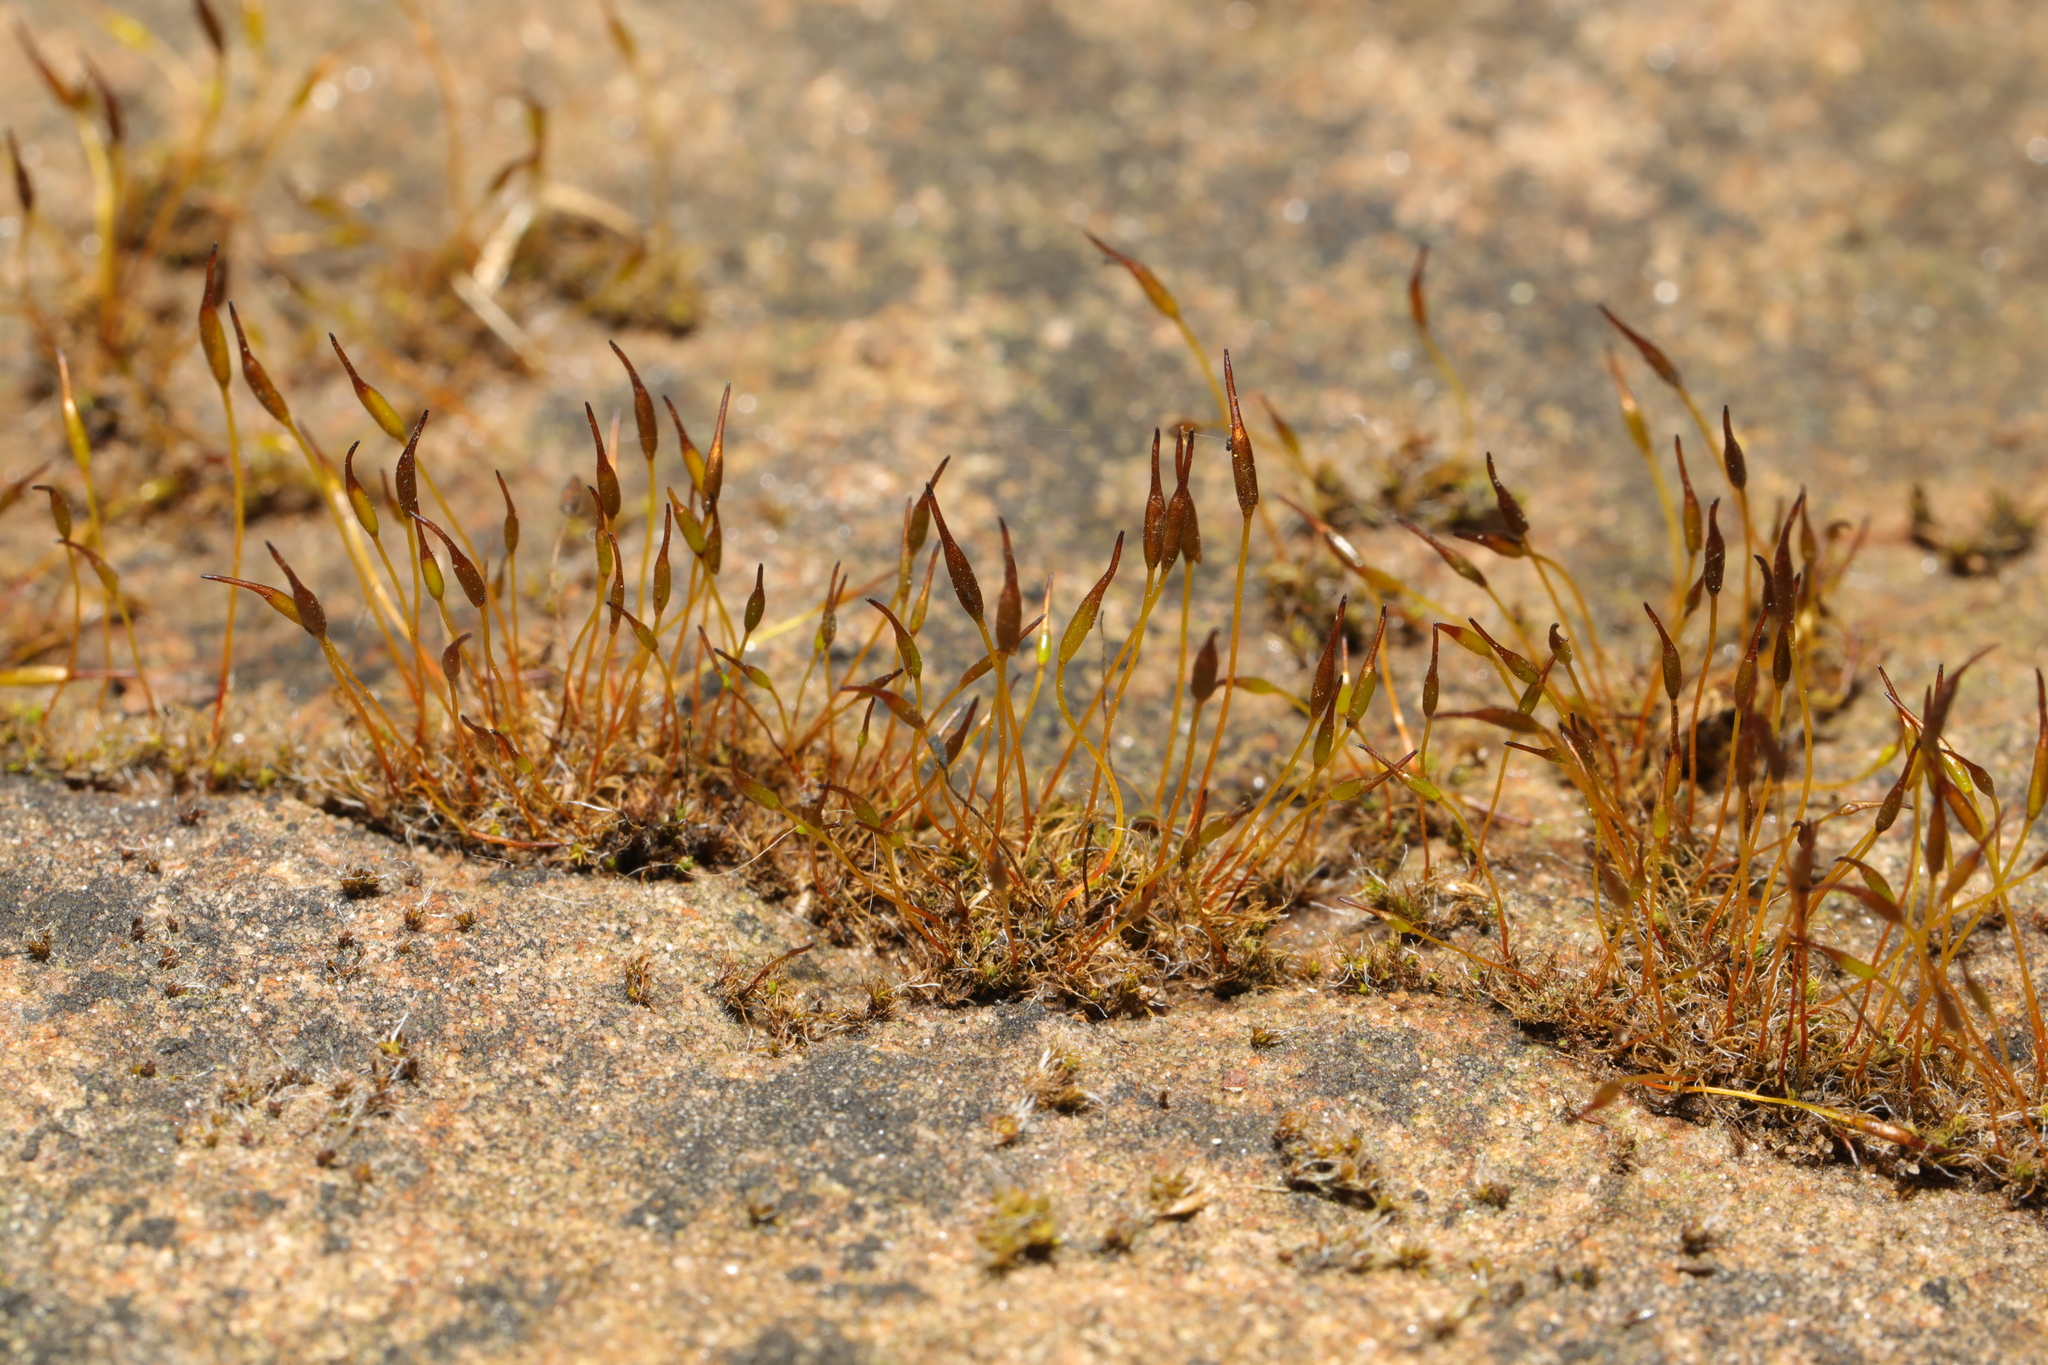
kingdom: Plantae
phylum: Bryophyta
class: Bryopsida
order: Pottiales
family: Pottiaceae
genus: Tortula
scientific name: Tortula muralis
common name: Wall screw-moss
